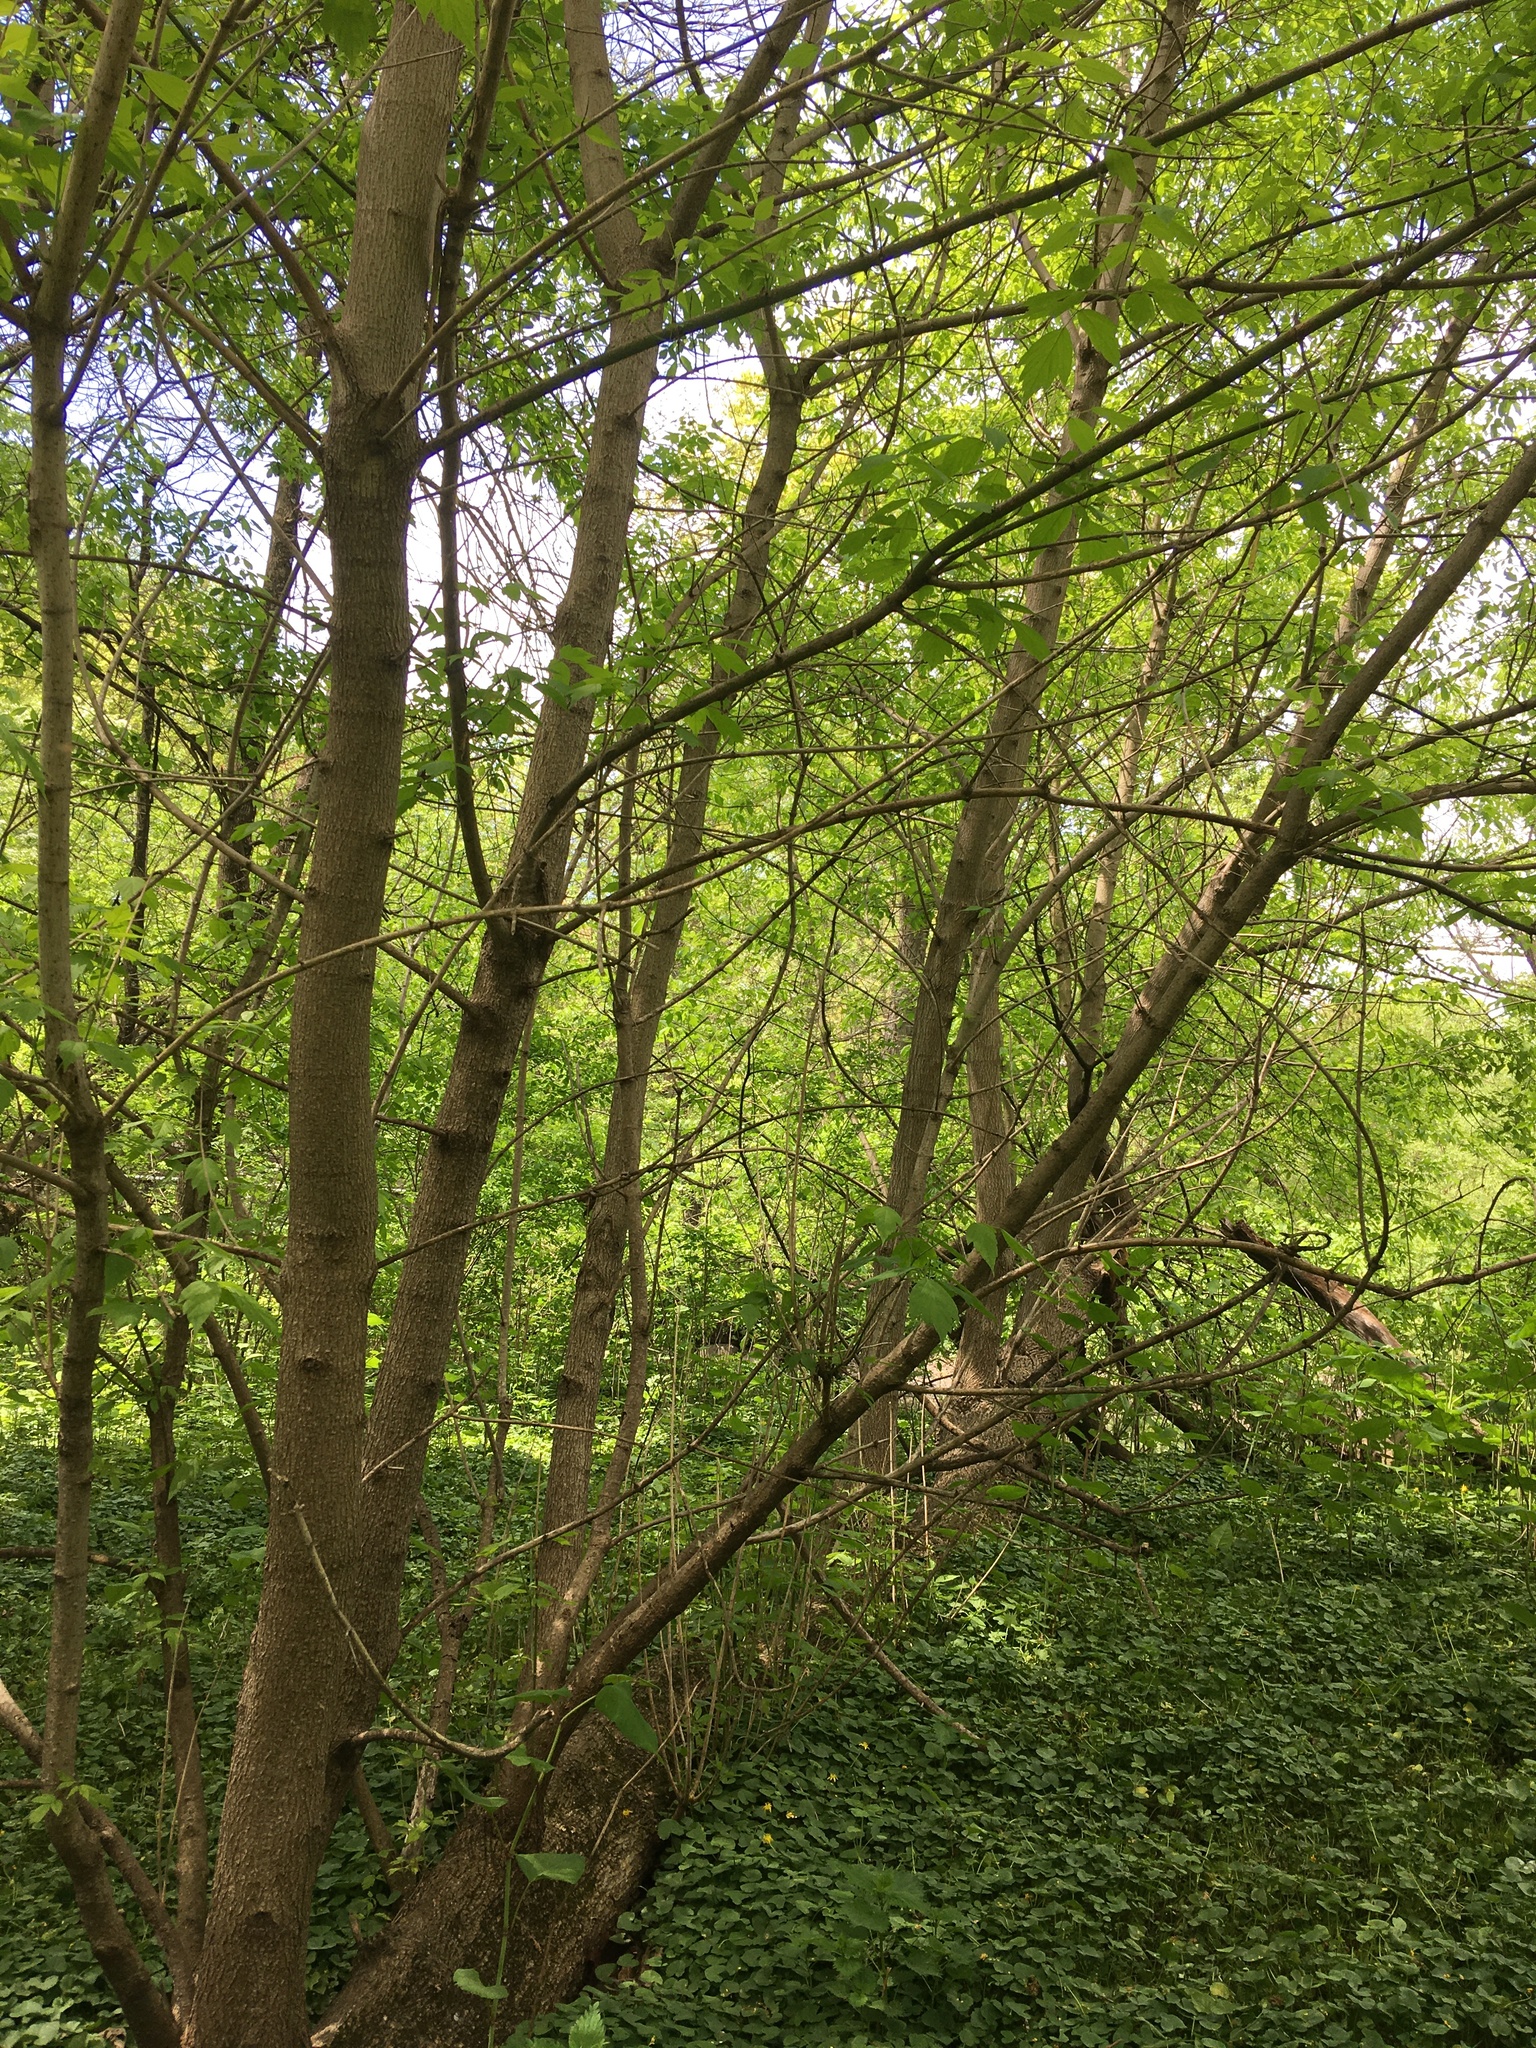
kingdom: Plantae
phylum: Tracheophyta
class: Magnoliopsida
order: Sapindales
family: Sapindaceae
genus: Acer
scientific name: Acer negundo
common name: Ashleaf maple
